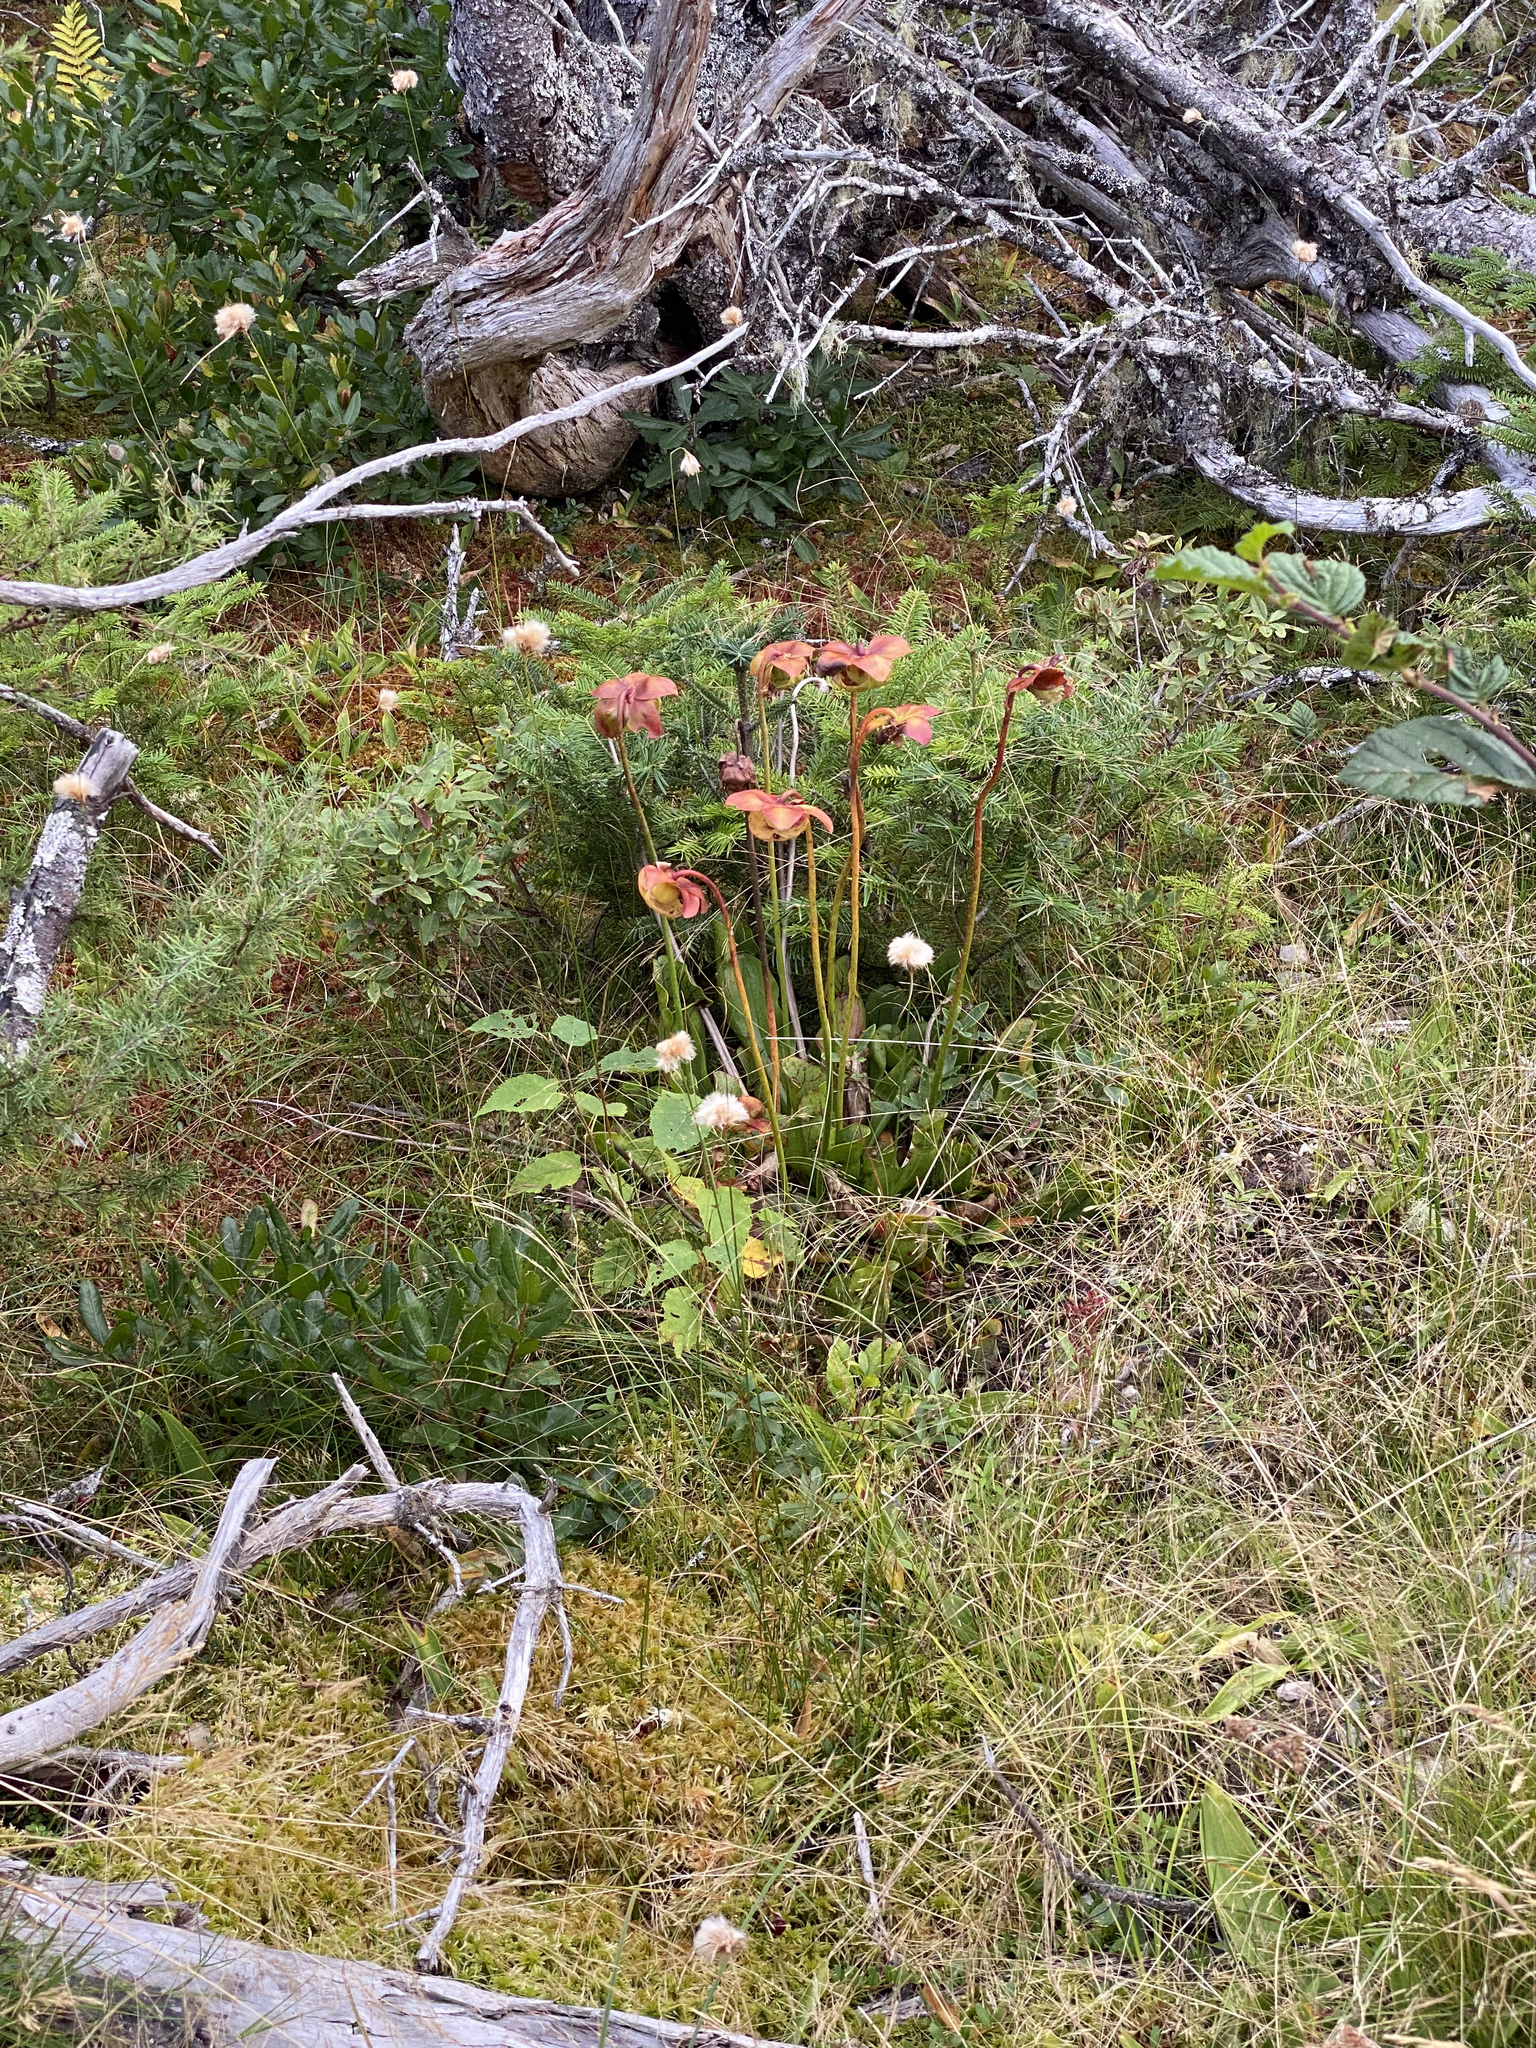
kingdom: Plantae
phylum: Tracheophyta
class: Magnoliopsida
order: Ericales
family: Sarraceniaceae
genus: Sarracenia
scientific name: Sarracenia purpurea
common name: Pitcherplant
